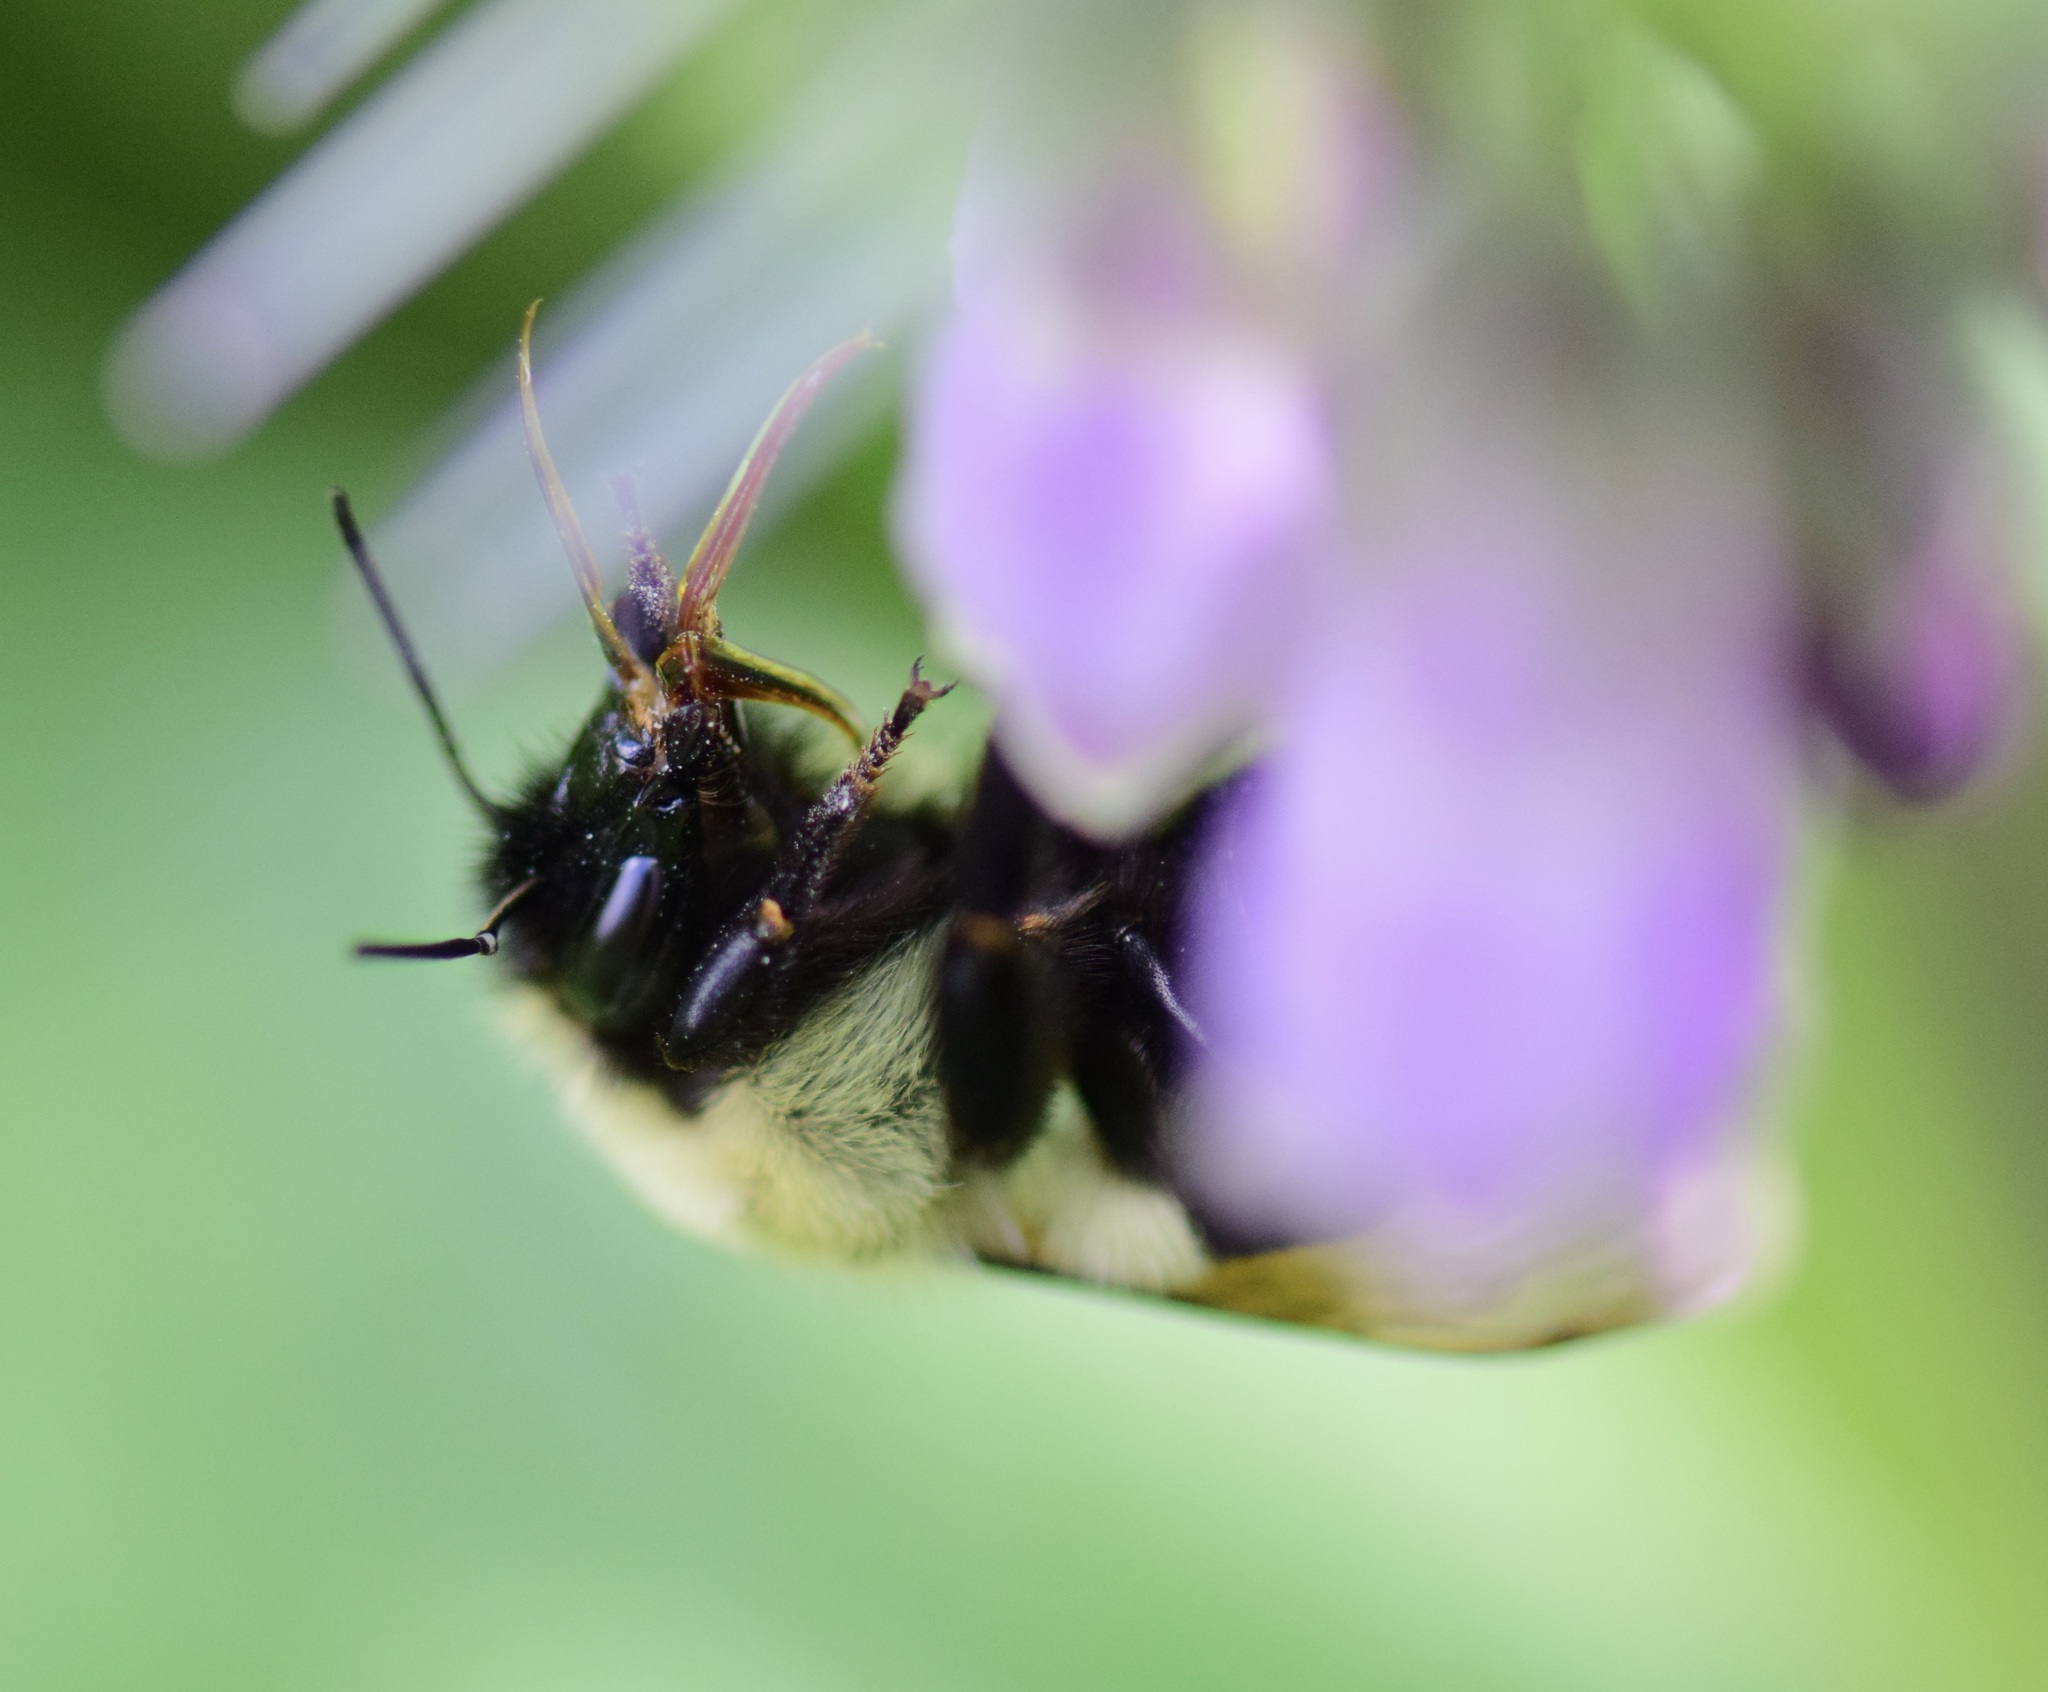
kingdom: Animalia
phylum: Arthropoda
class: Insecta
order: Hymenoptera
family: Apidae
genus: Bombus
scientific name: Bombus vagans
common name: Half-black bumble bee
